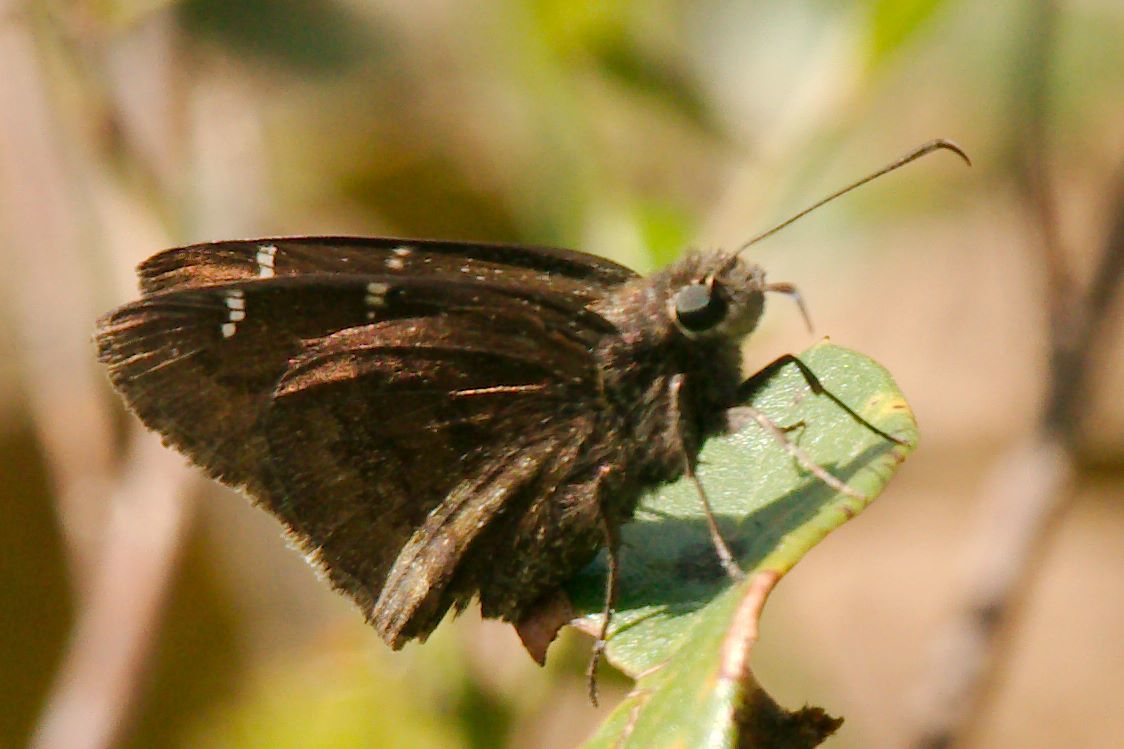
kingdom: Animalia
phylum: Arthropoda
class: Insecta
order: Lepidoptera
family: Hesperiidae
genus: Thorybes
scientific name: Thorybes mexicana
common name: Mexican cloudywing
